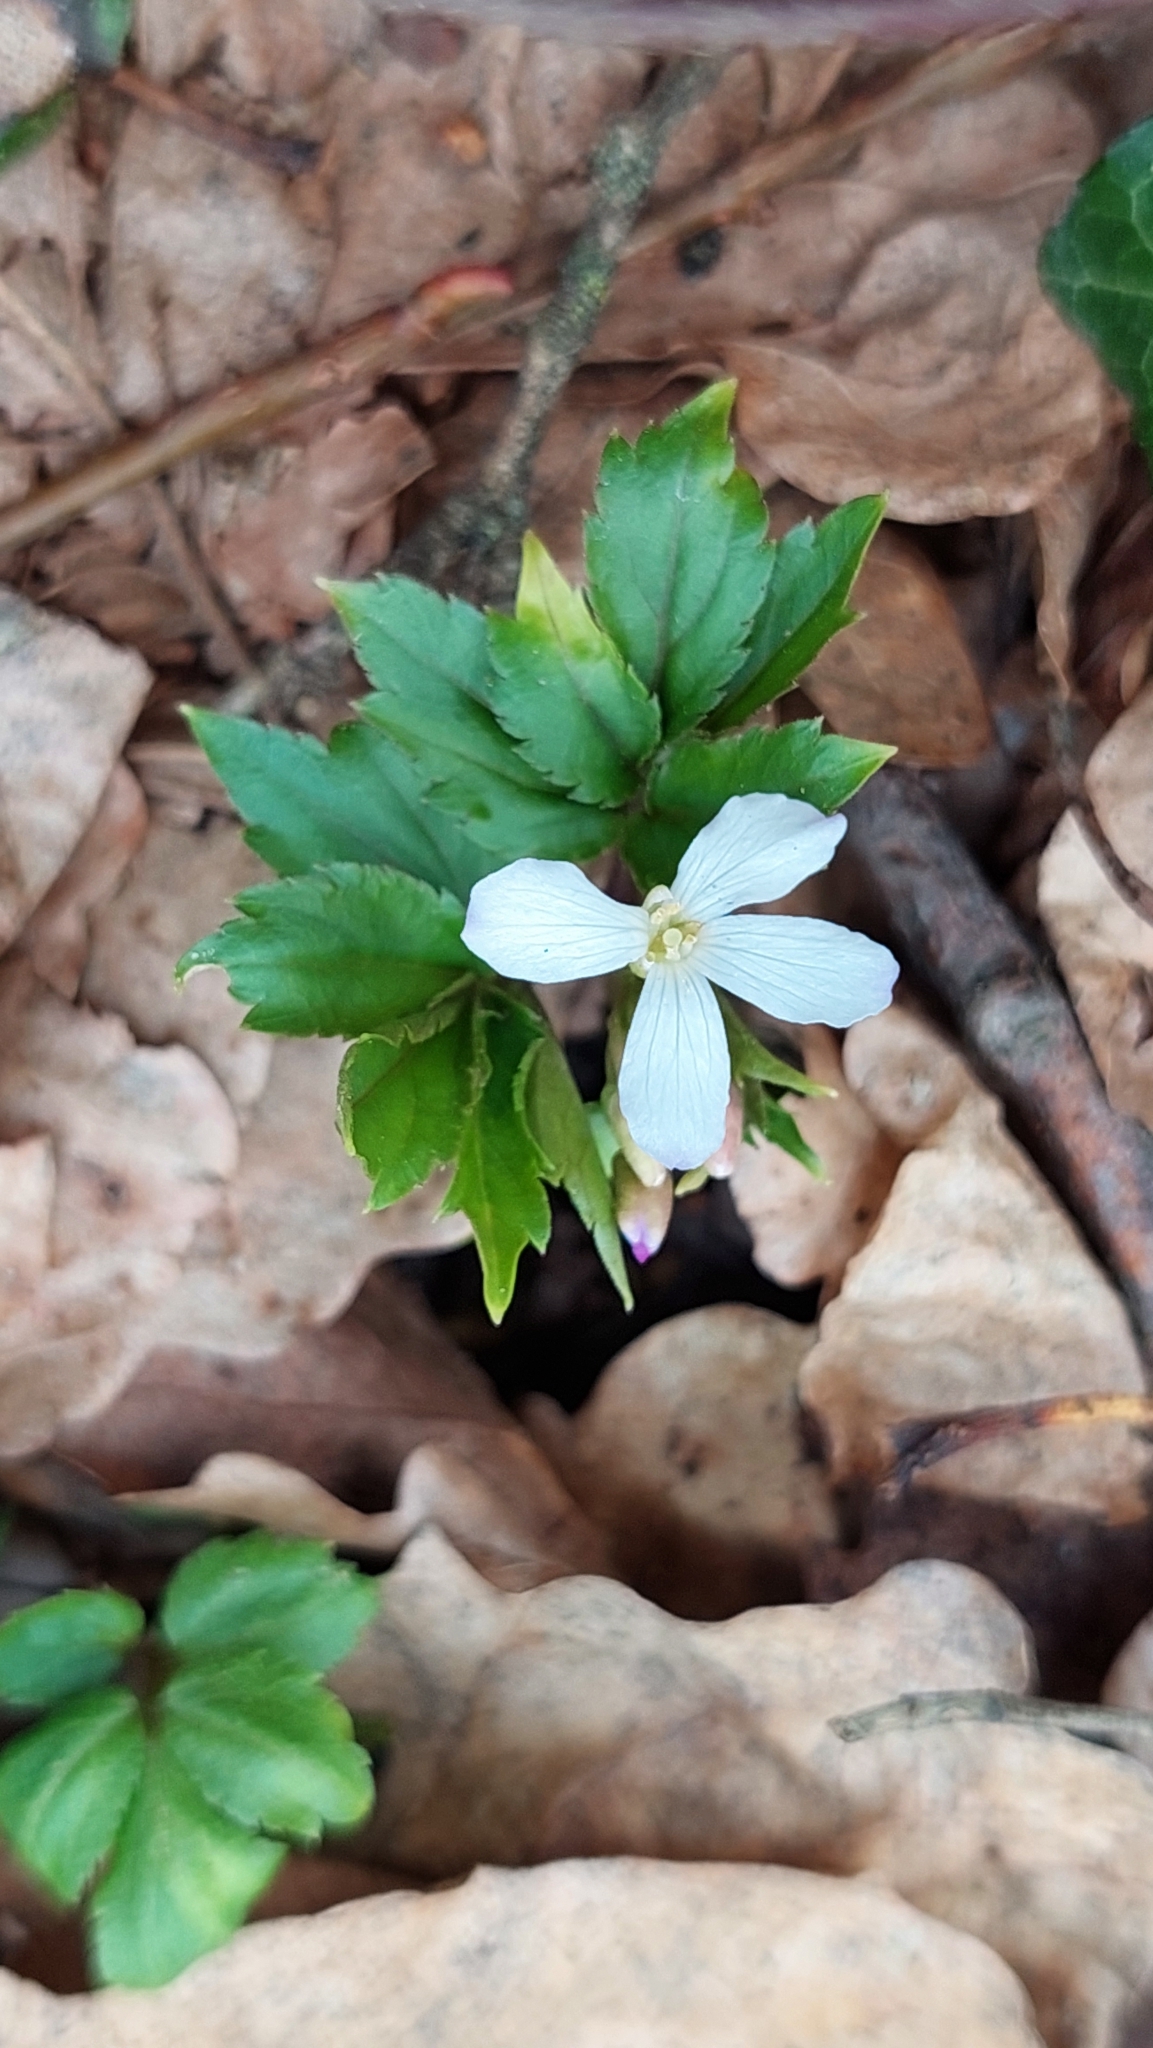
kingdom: Plantae
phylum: Tracheophyta
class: Magnoliopsida
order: Brassicales
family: Brassicaceae
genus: Cardamine
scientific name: Cardamine quinquefolia
